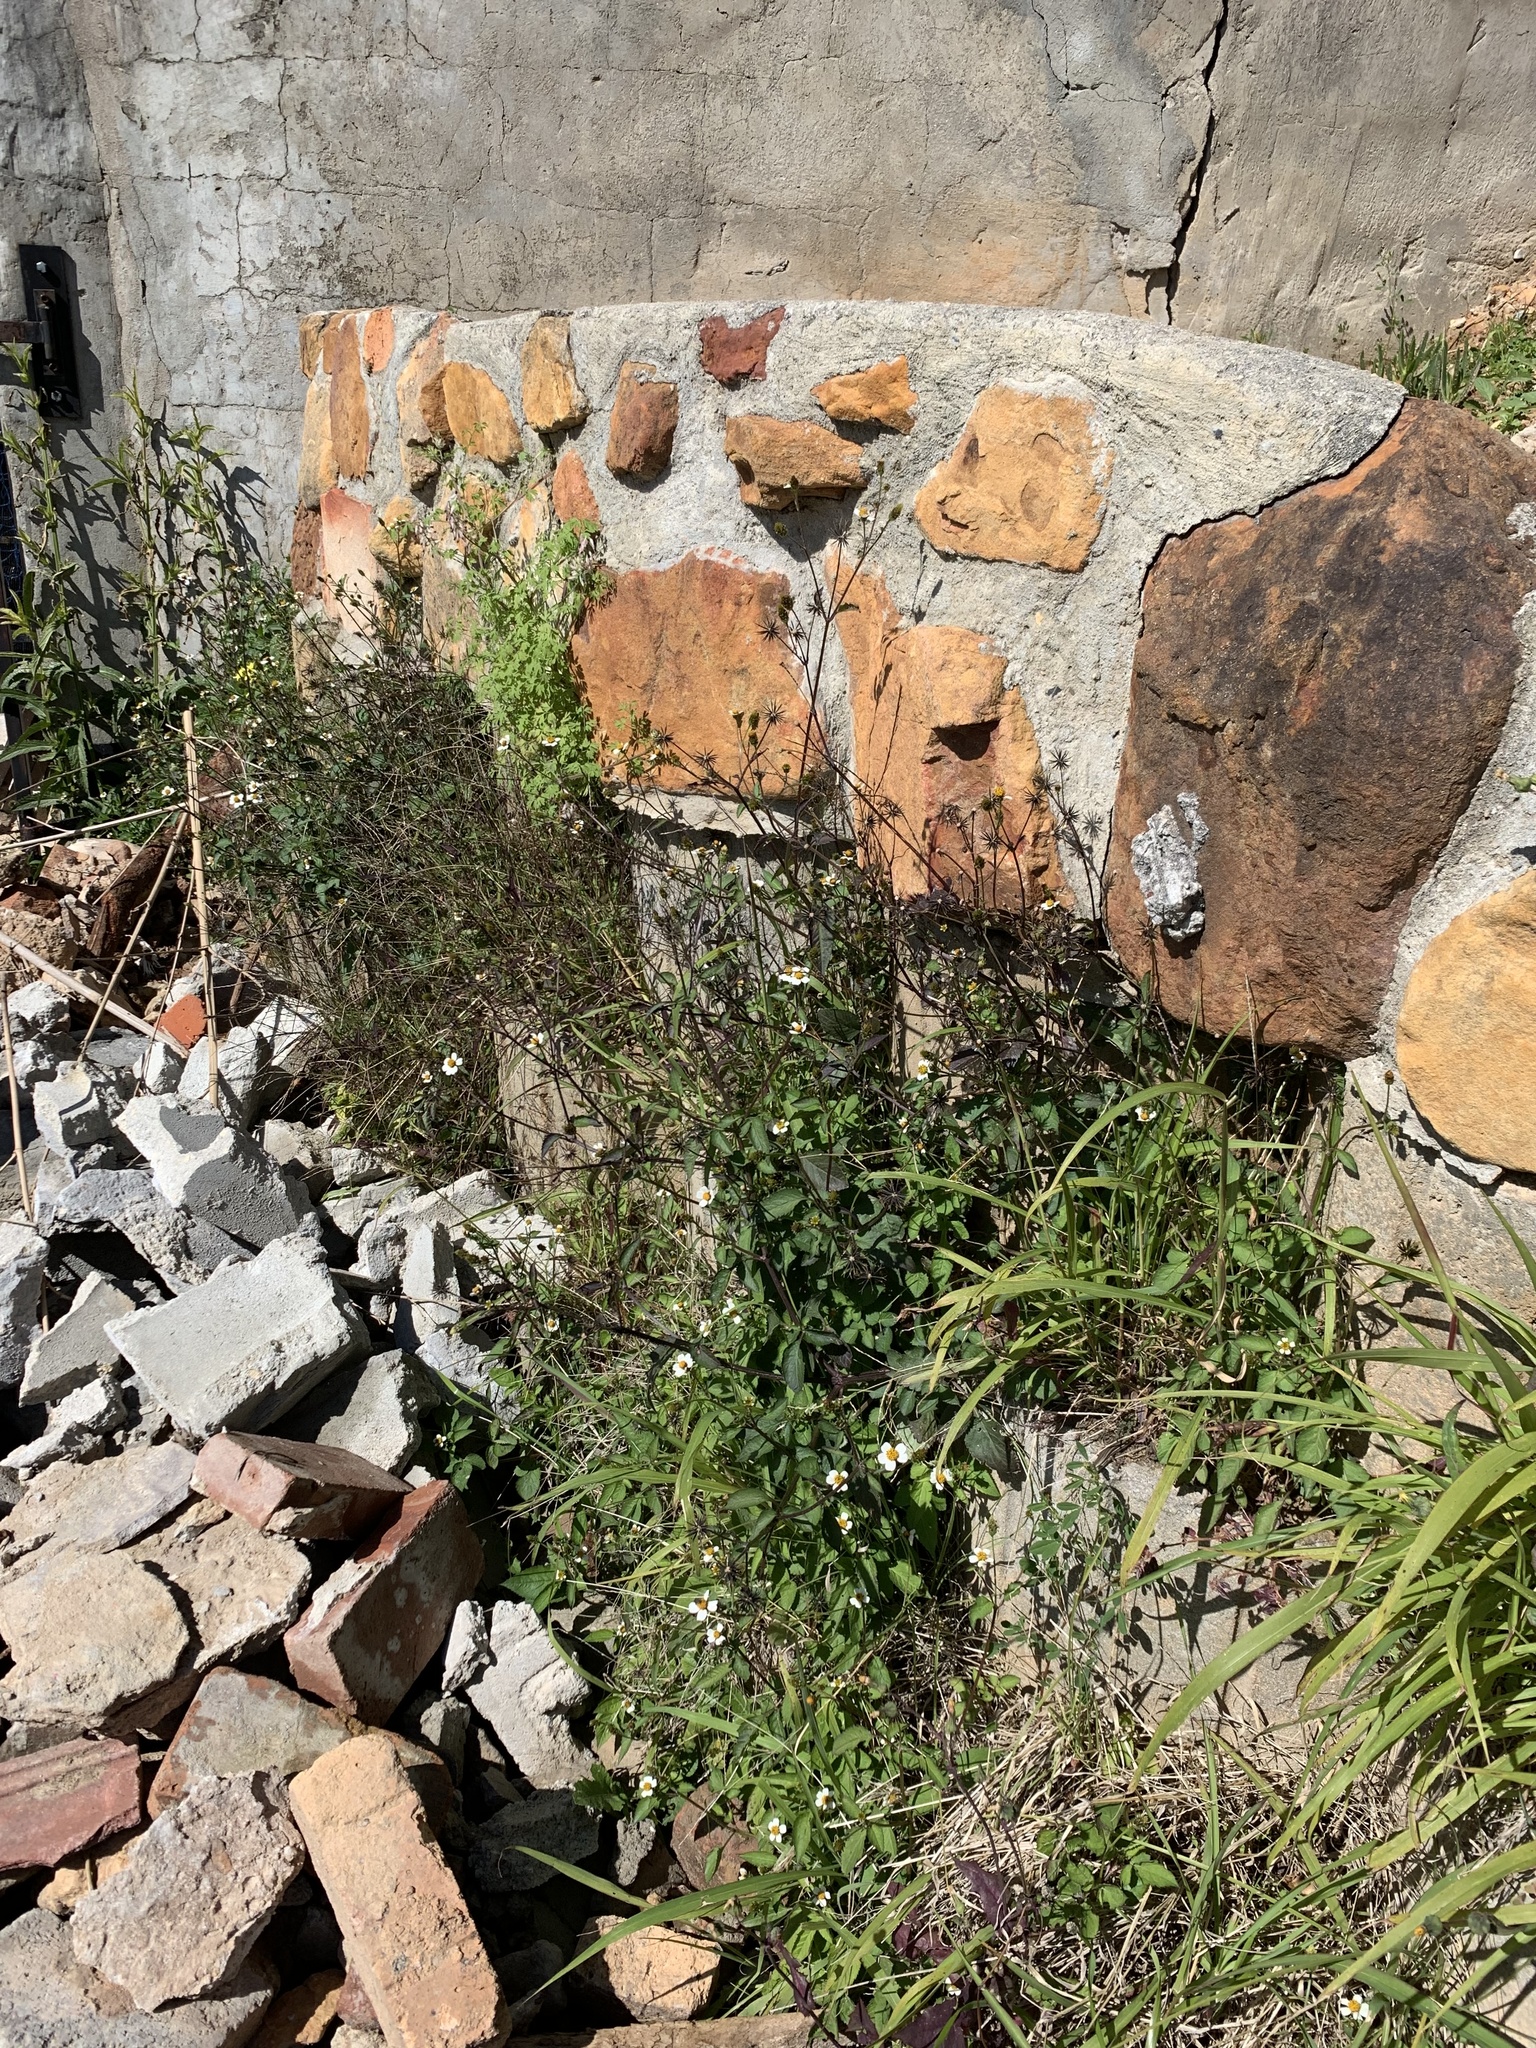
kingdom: Plantae
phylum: Tracheophyta
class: Magnoliopsida
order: Asterales
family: Asteraceae
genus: Bidens
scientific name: Bidens pilosa
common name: Black-jack
